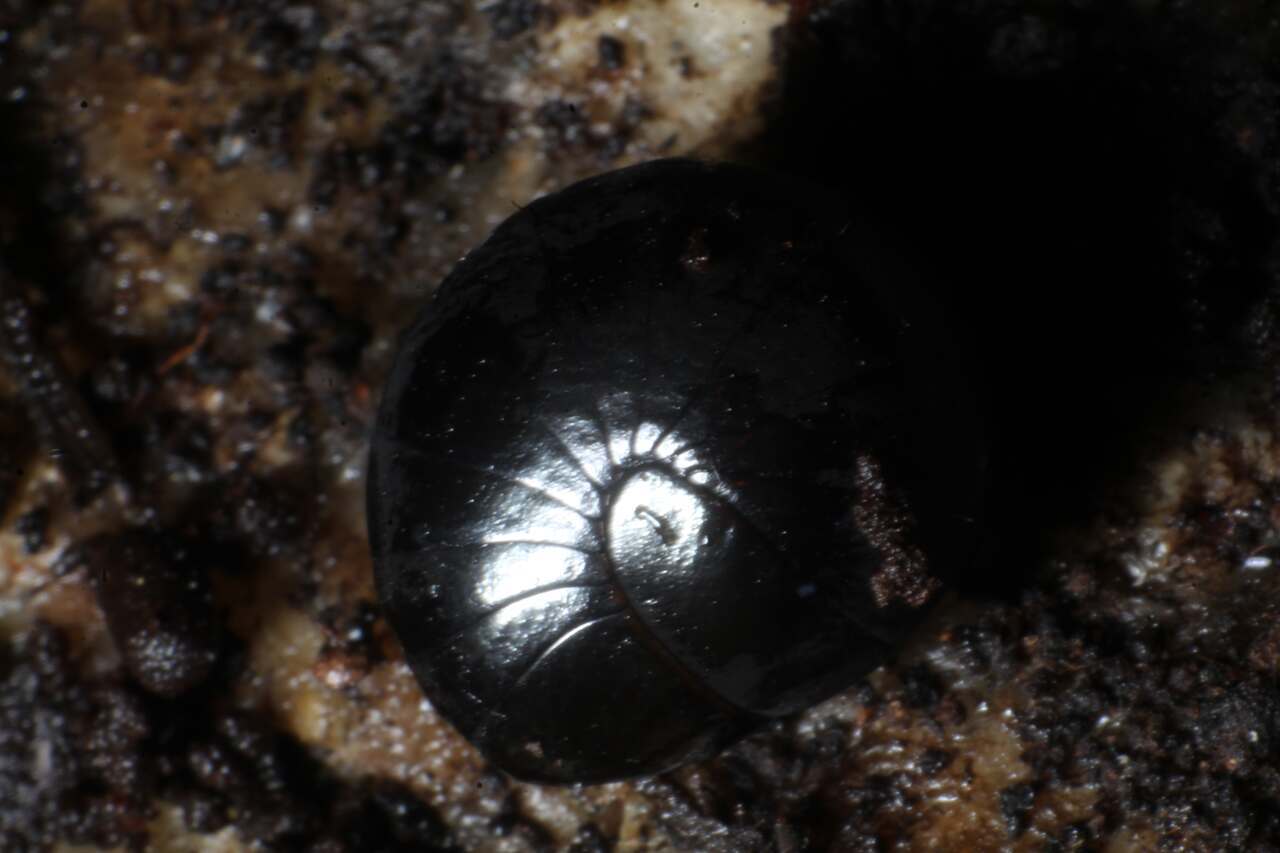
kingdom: Animalia
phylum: Arthropoda
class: Diplopoda
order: Sphaerotheriida
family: Cyliosomatidae
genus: Cynotelopus
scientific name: Cynotelopus notabilis
